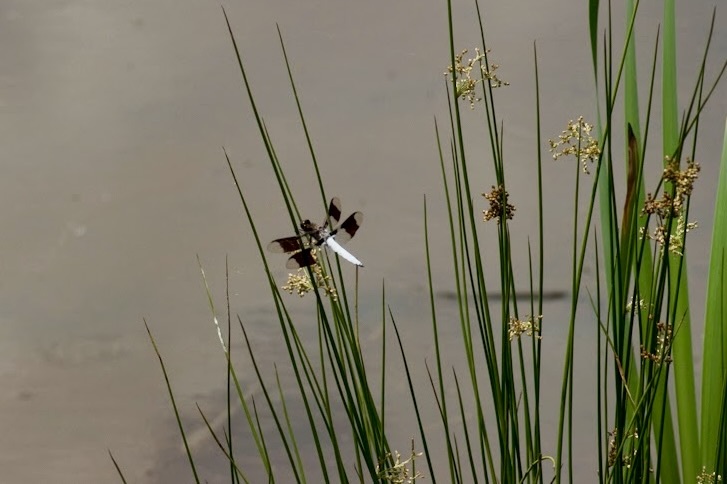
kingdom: Animalia
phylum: Arthropoda
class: Insecta
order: Odonata
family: Libellulidae
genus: Plathemis
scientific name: Plathemis lydia
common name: Common whitetail
